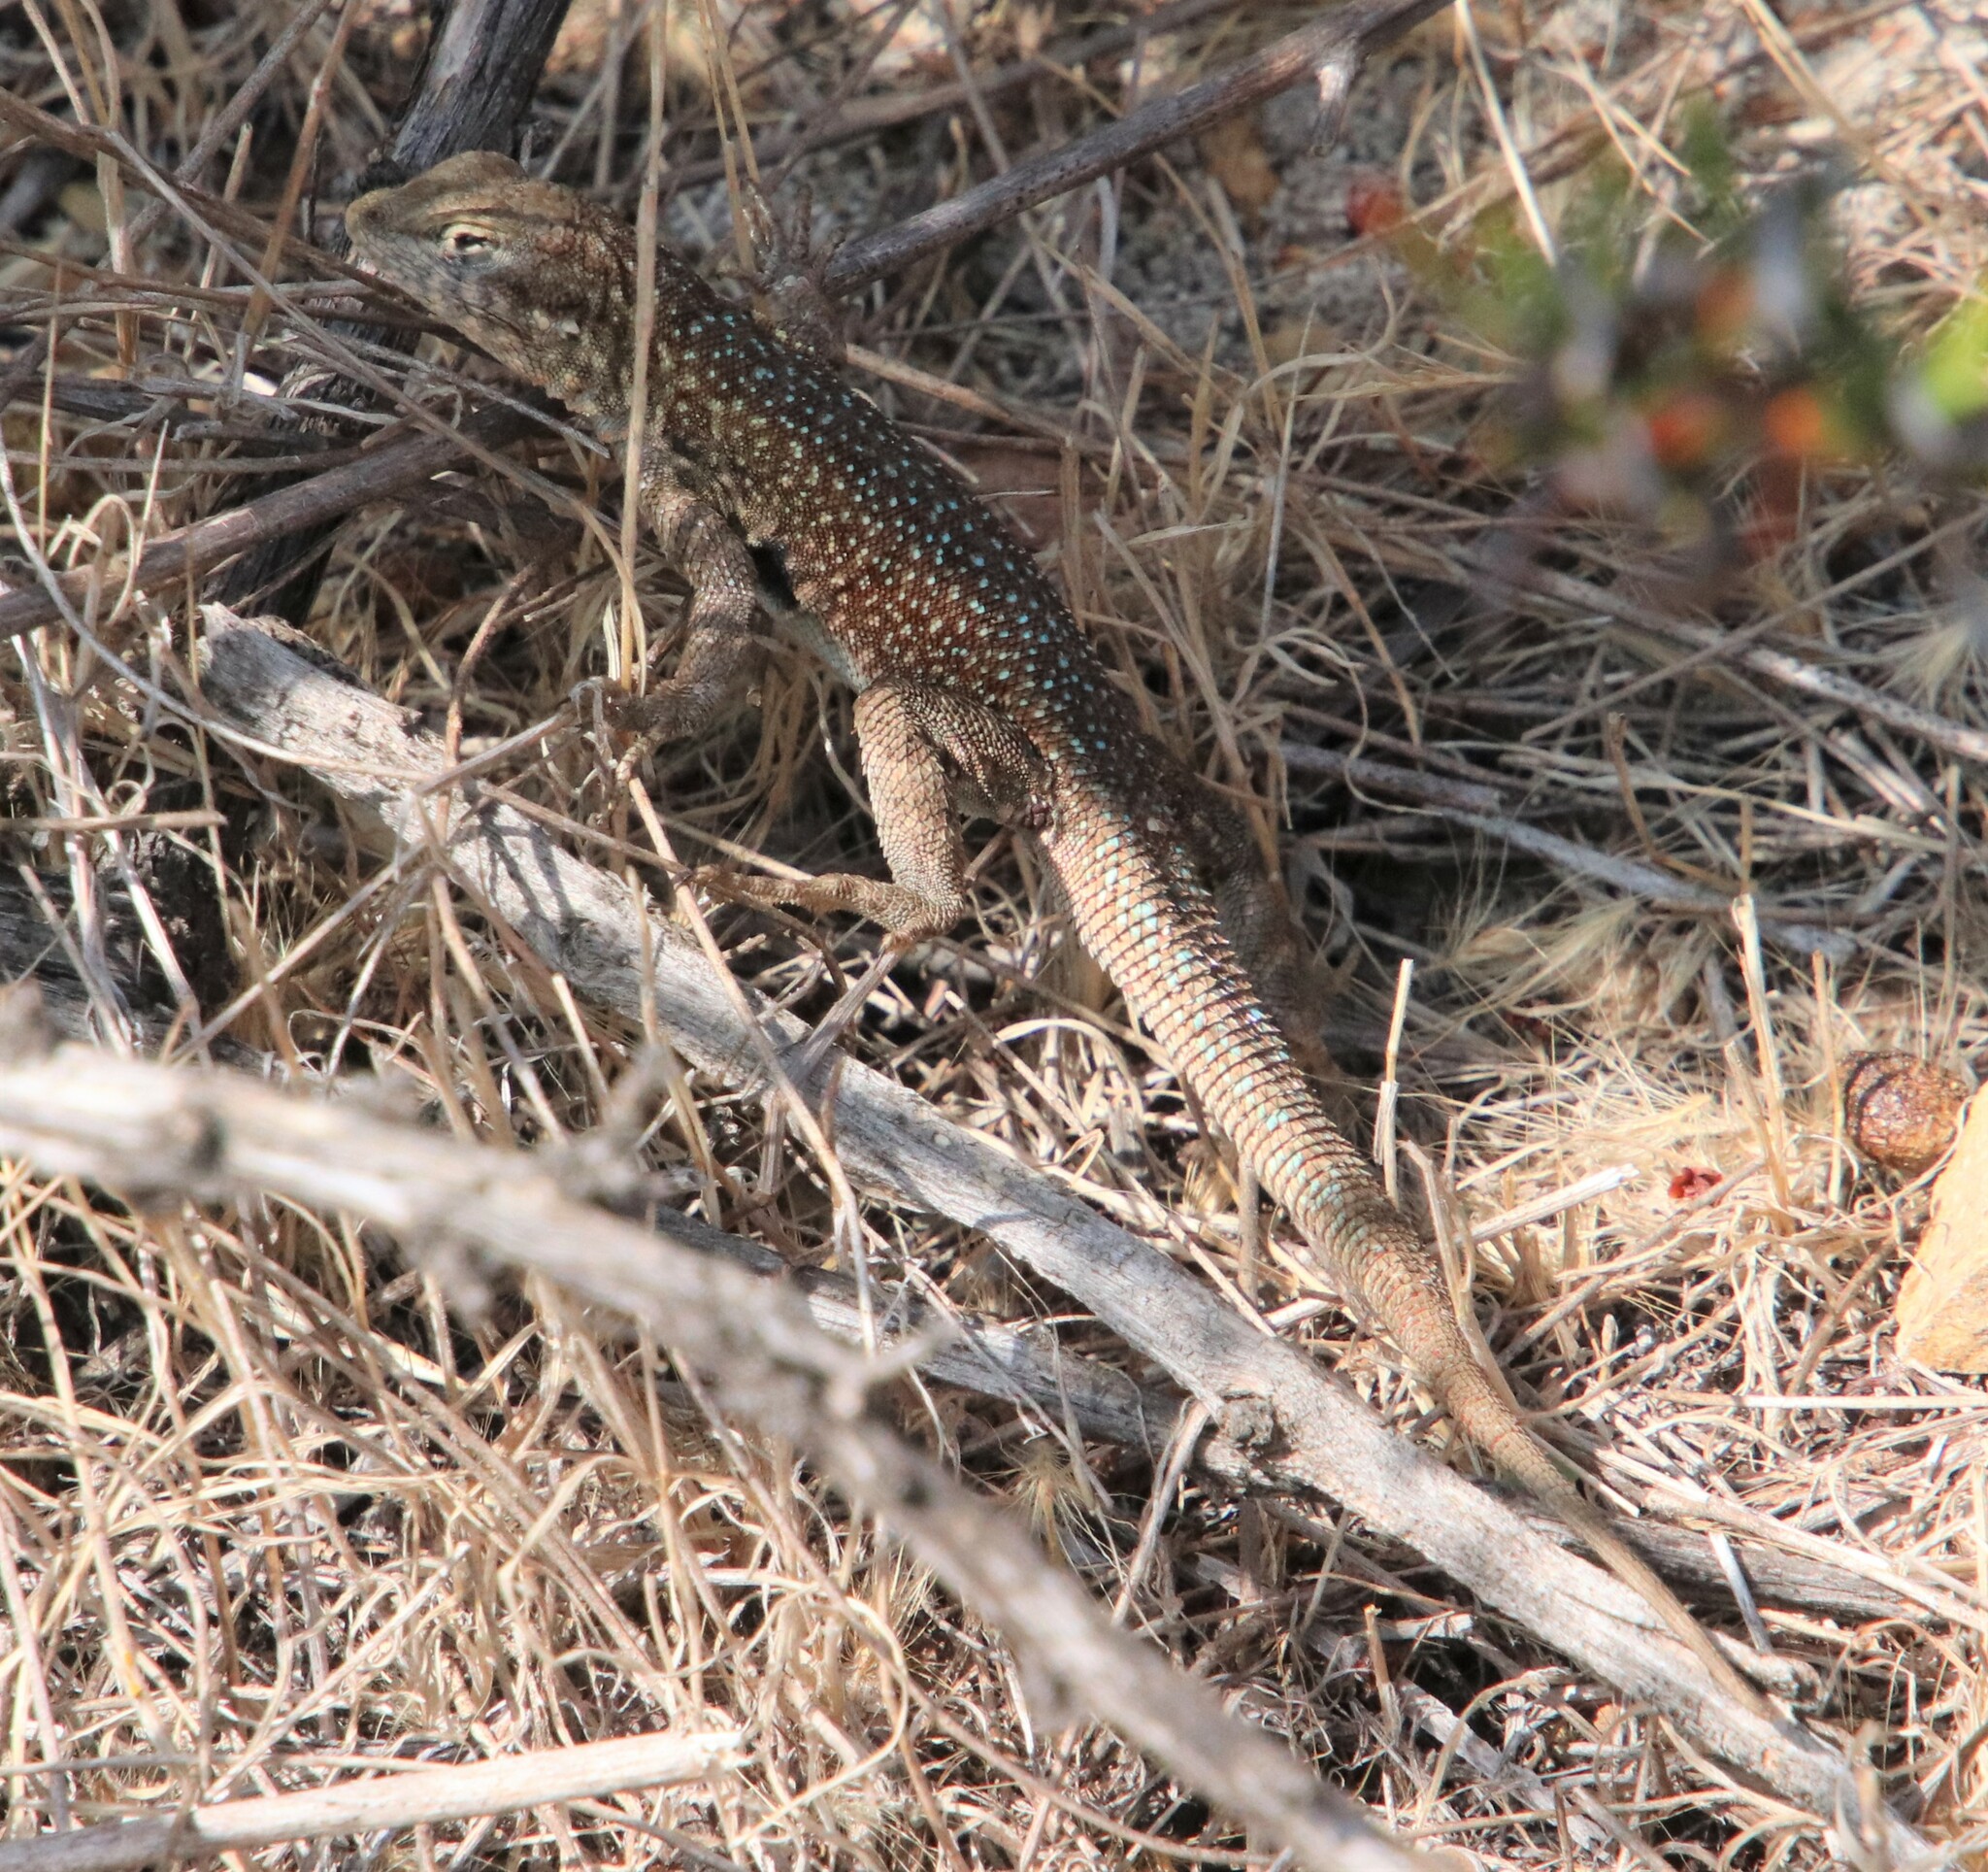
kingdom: Animalia
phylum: Chordata
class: Squamata
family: Phrynosomatidae
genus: Uta
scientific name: Uta stansburiana
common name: Side-blotched lizard
